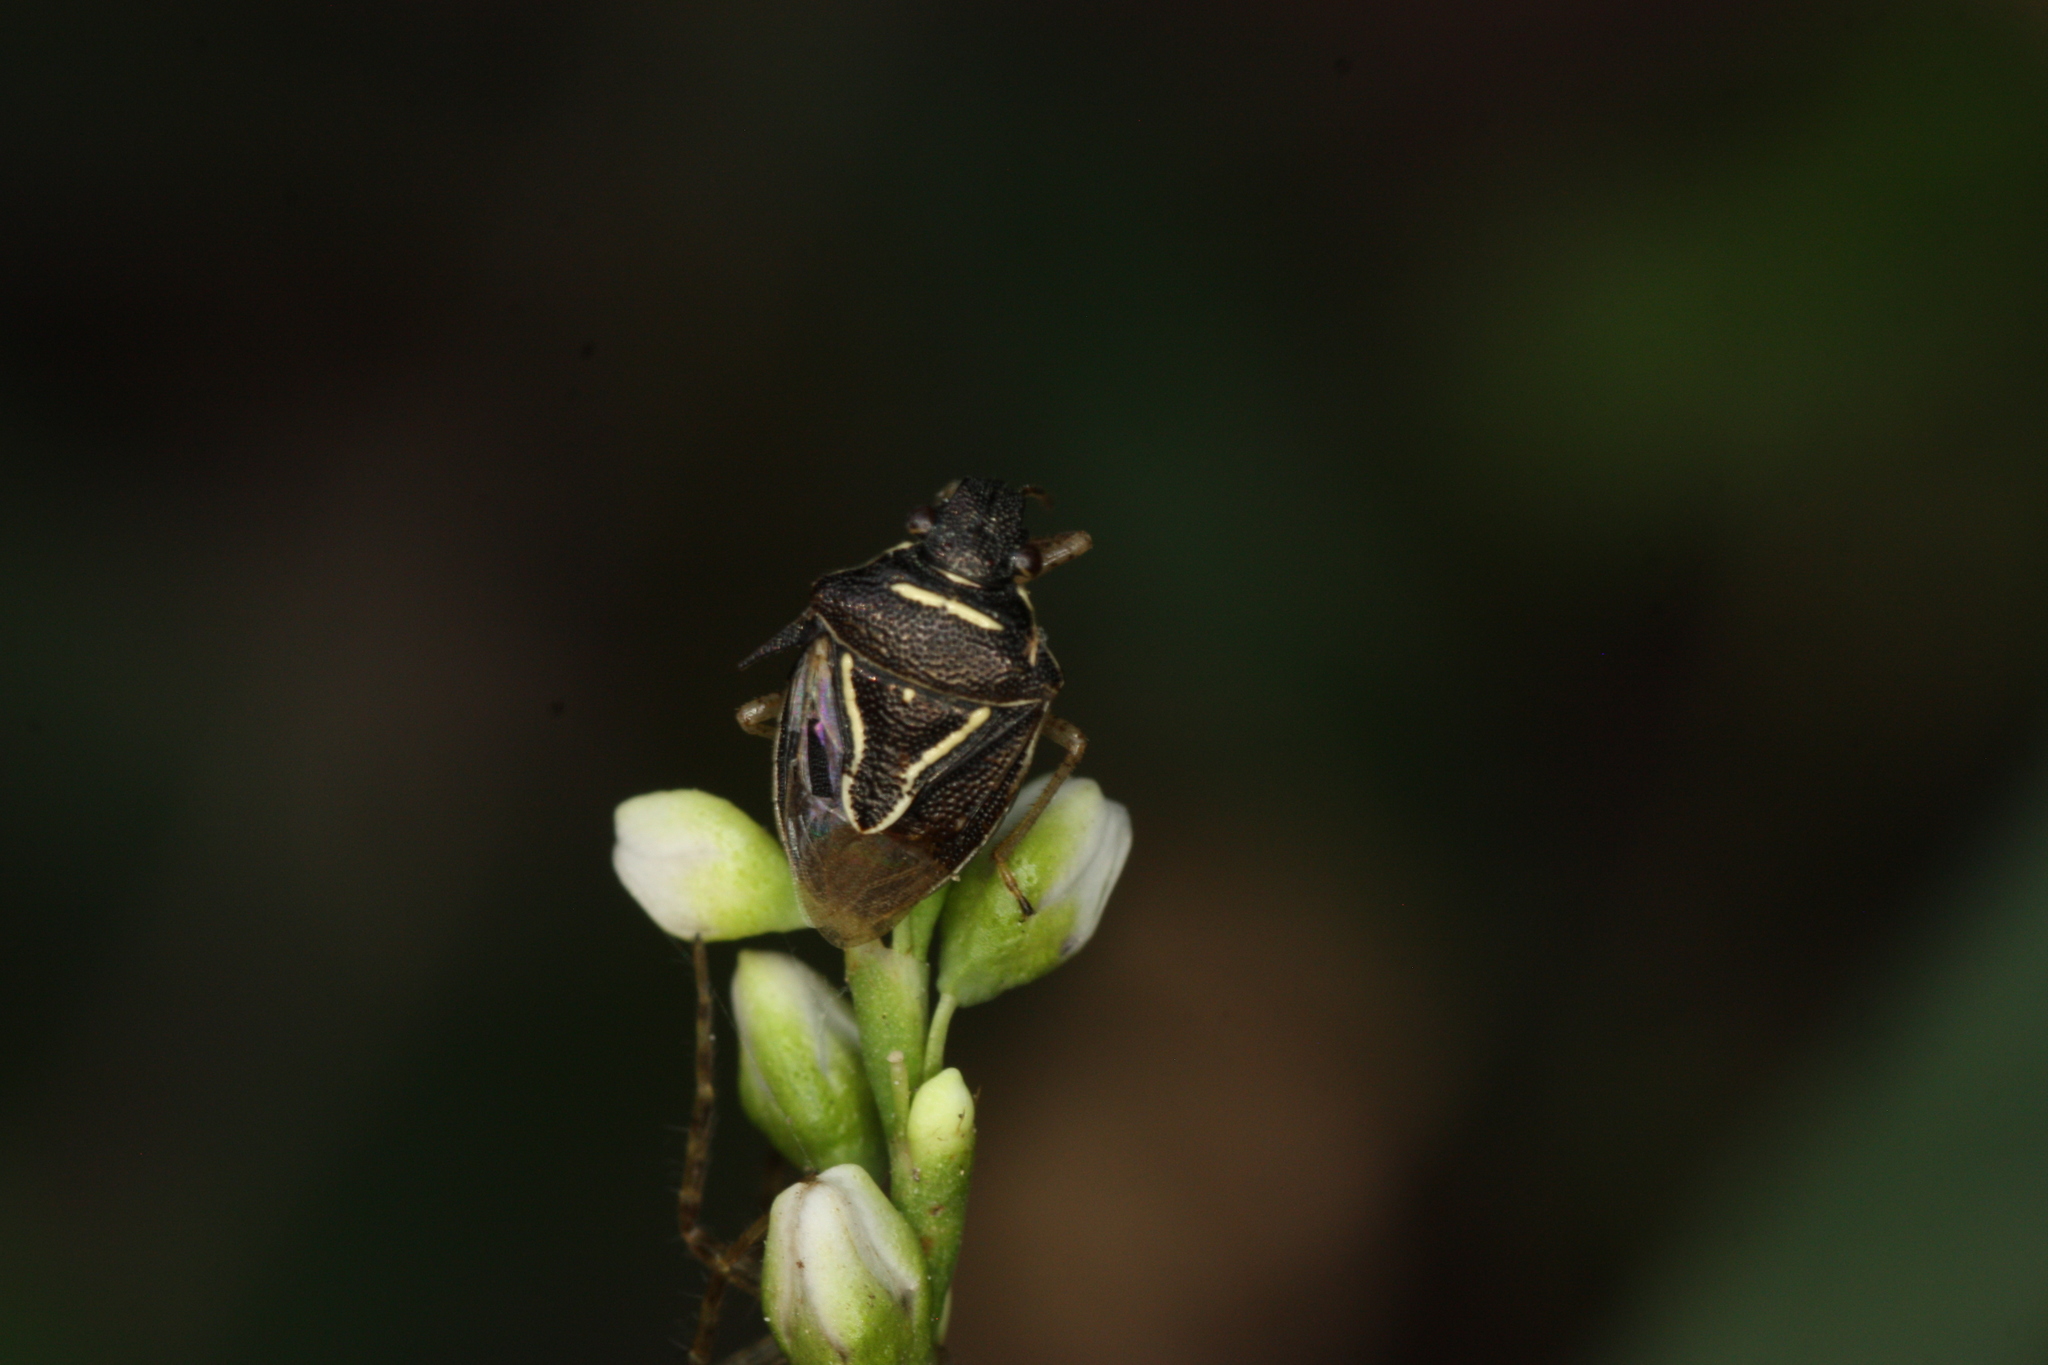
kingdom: Animalia
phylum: Arthropoda
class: Insecta
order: Hemiptera
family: Pentatomidae
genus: Mormidea
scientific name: Mormidea lugens
